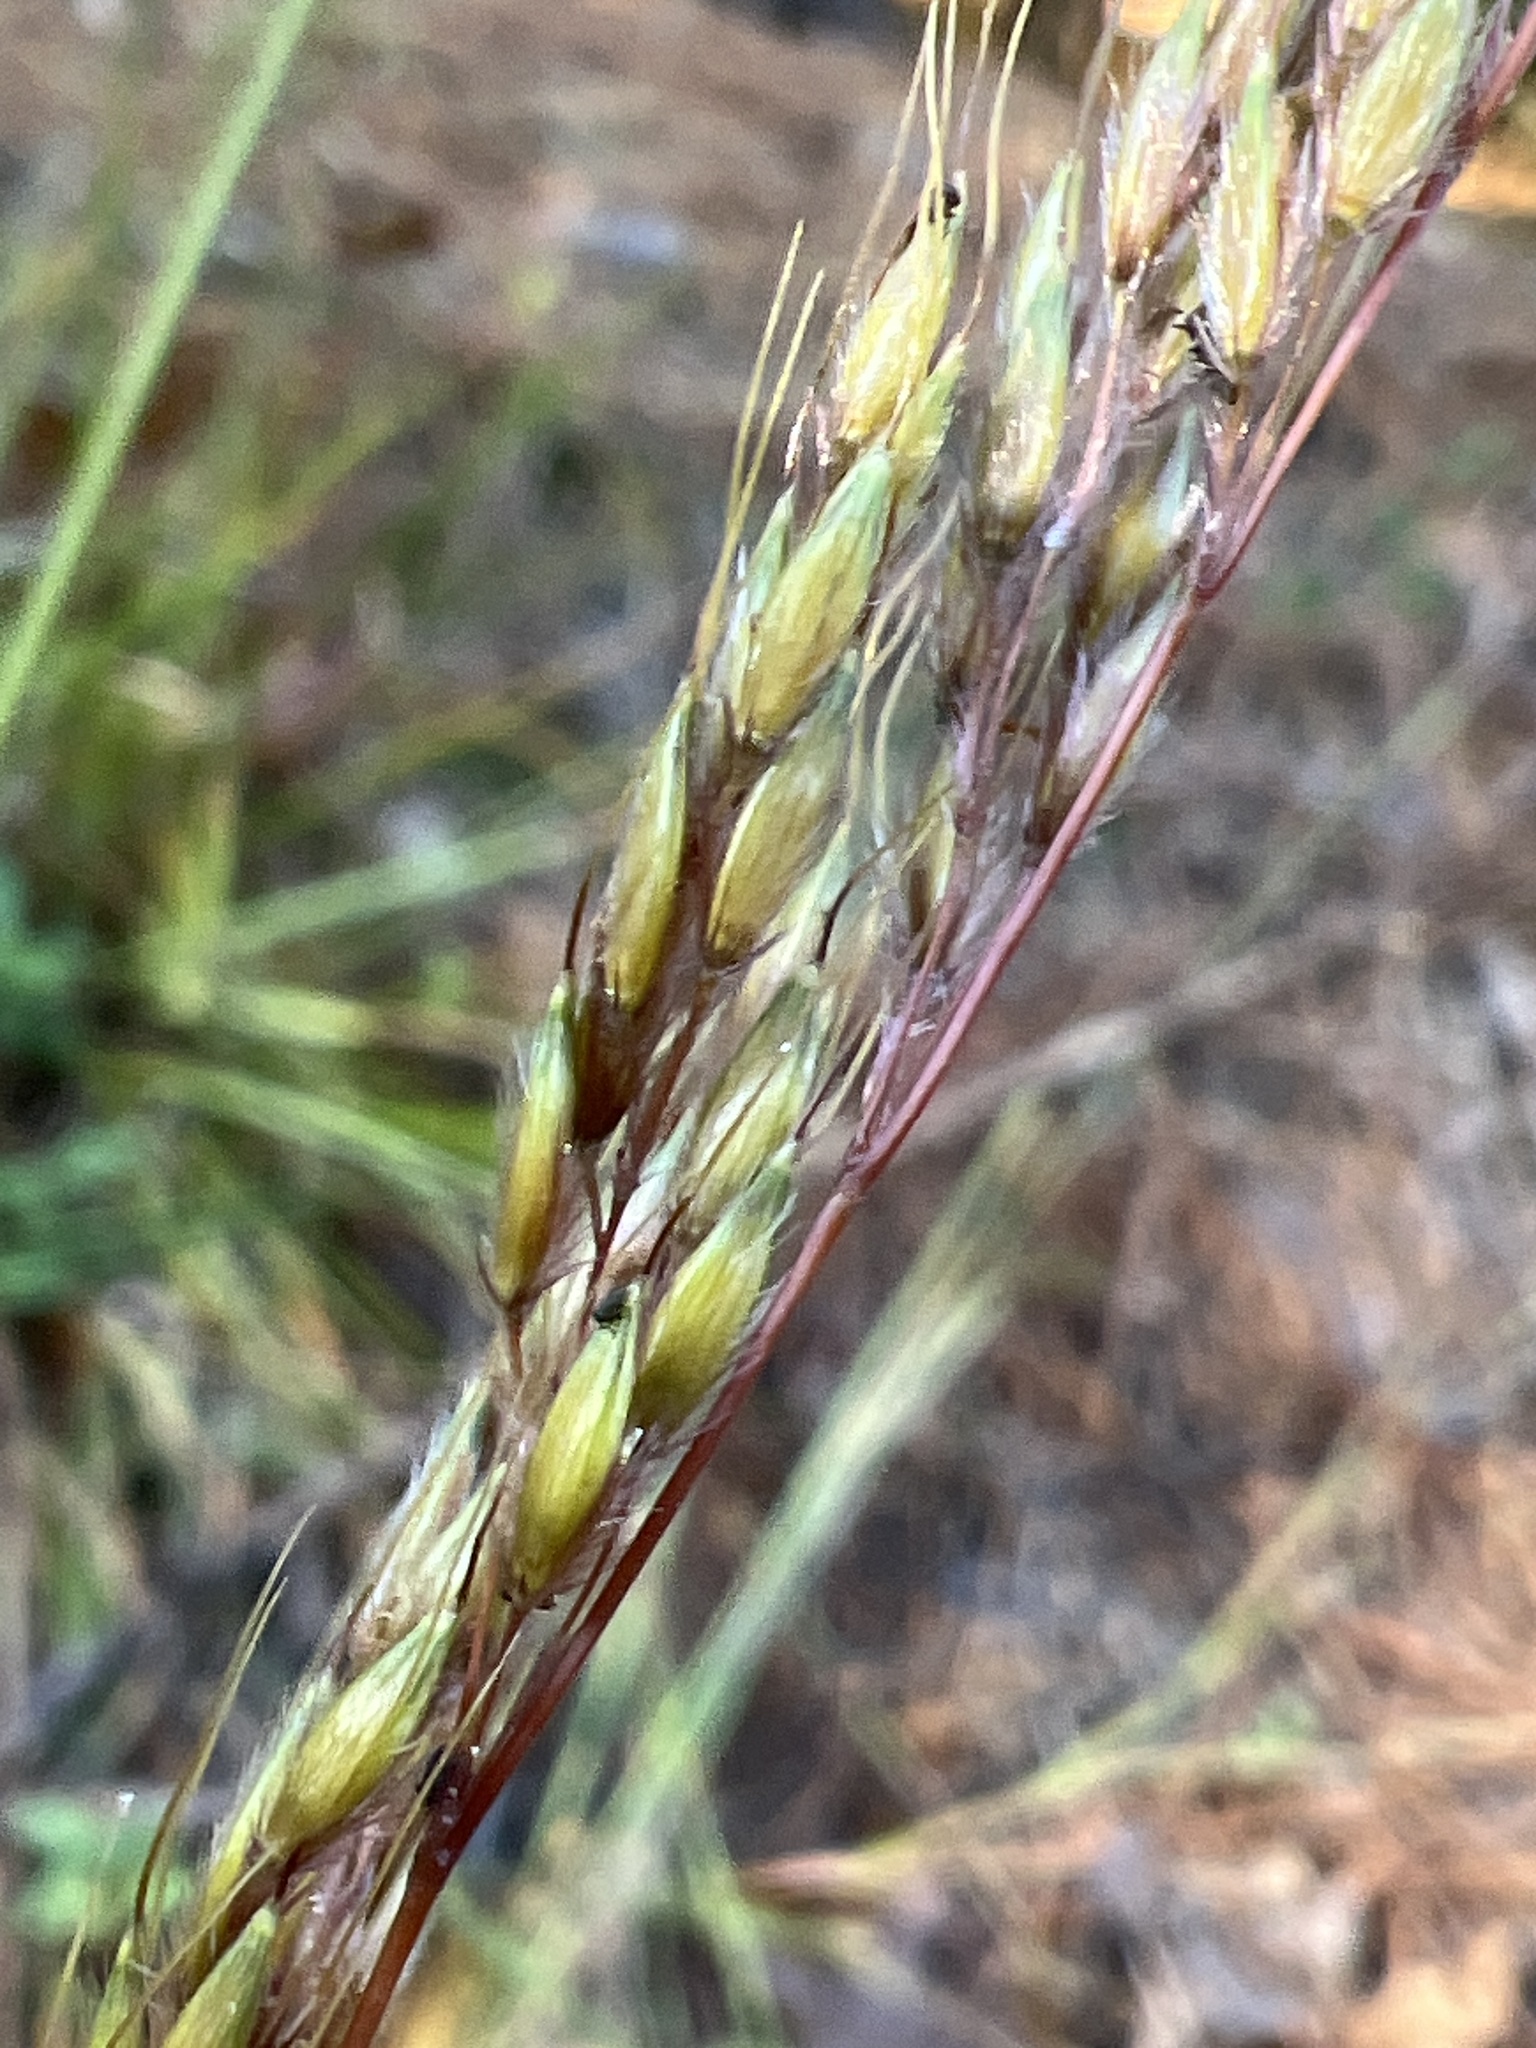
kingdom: Plantae
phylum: Tracheophyta
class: Liliopsida
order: Poales
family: Poaceae
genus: Sorghastrum
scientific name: Sorghastrum nutans
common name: Indian grass
